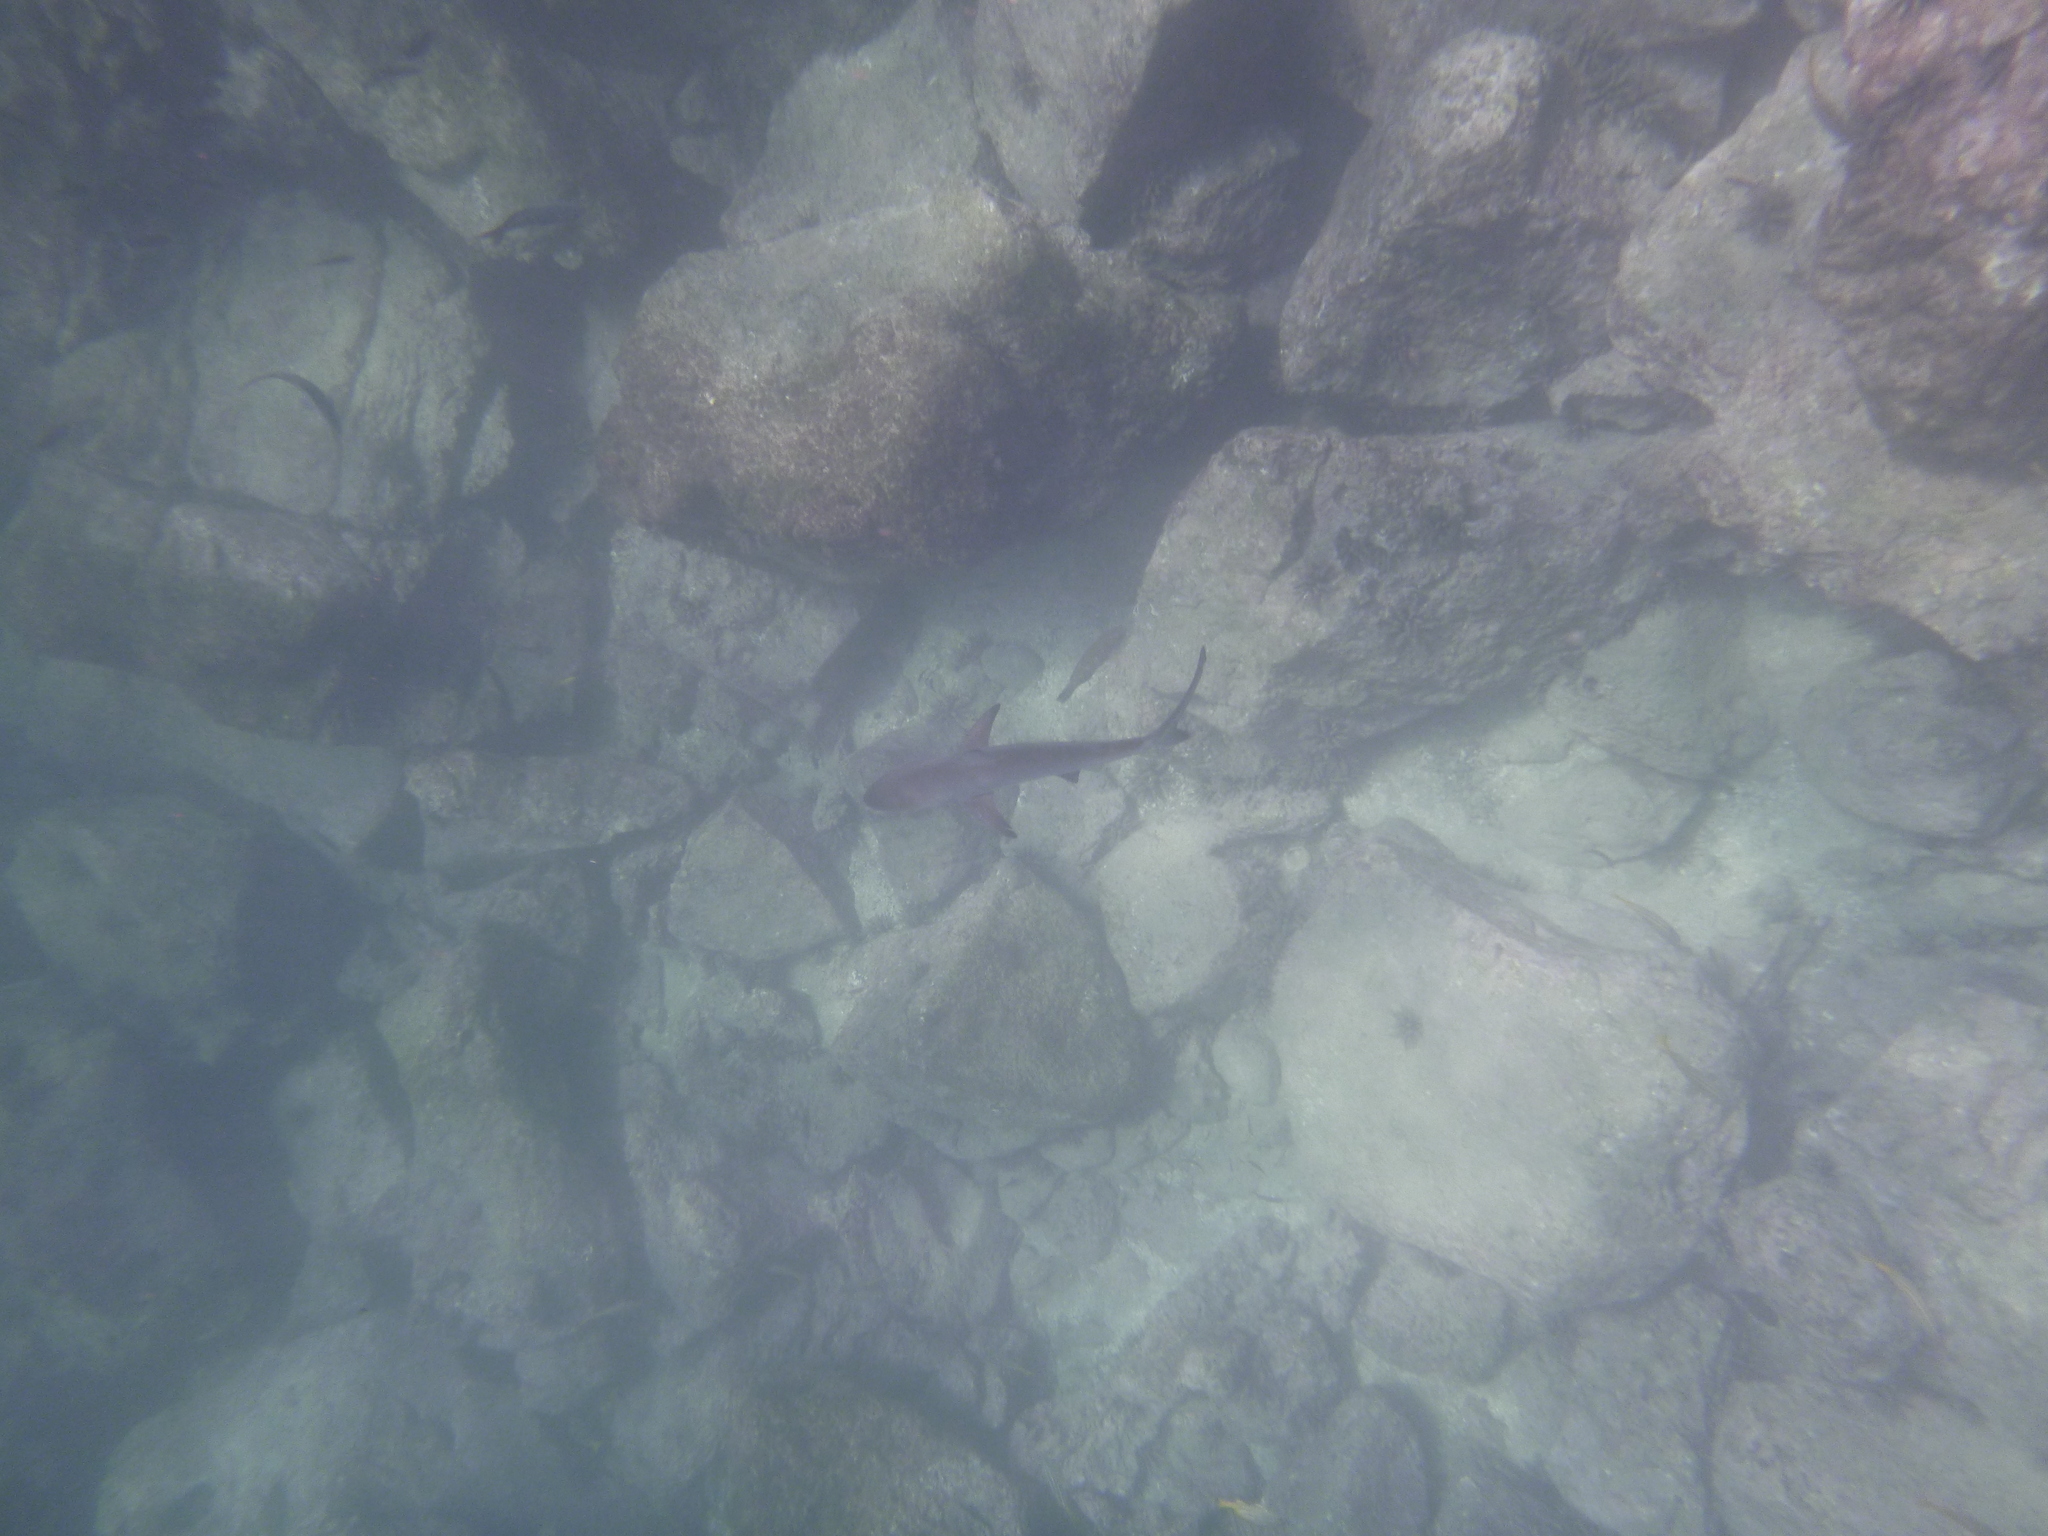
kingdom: Animalia
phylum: Chordata
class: Elasmobranchii
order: Carcharhiniformes
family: Carcharhinidae
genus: Carcharhinus
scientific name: Carcharhinus limbatus
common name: Blacktip shark
